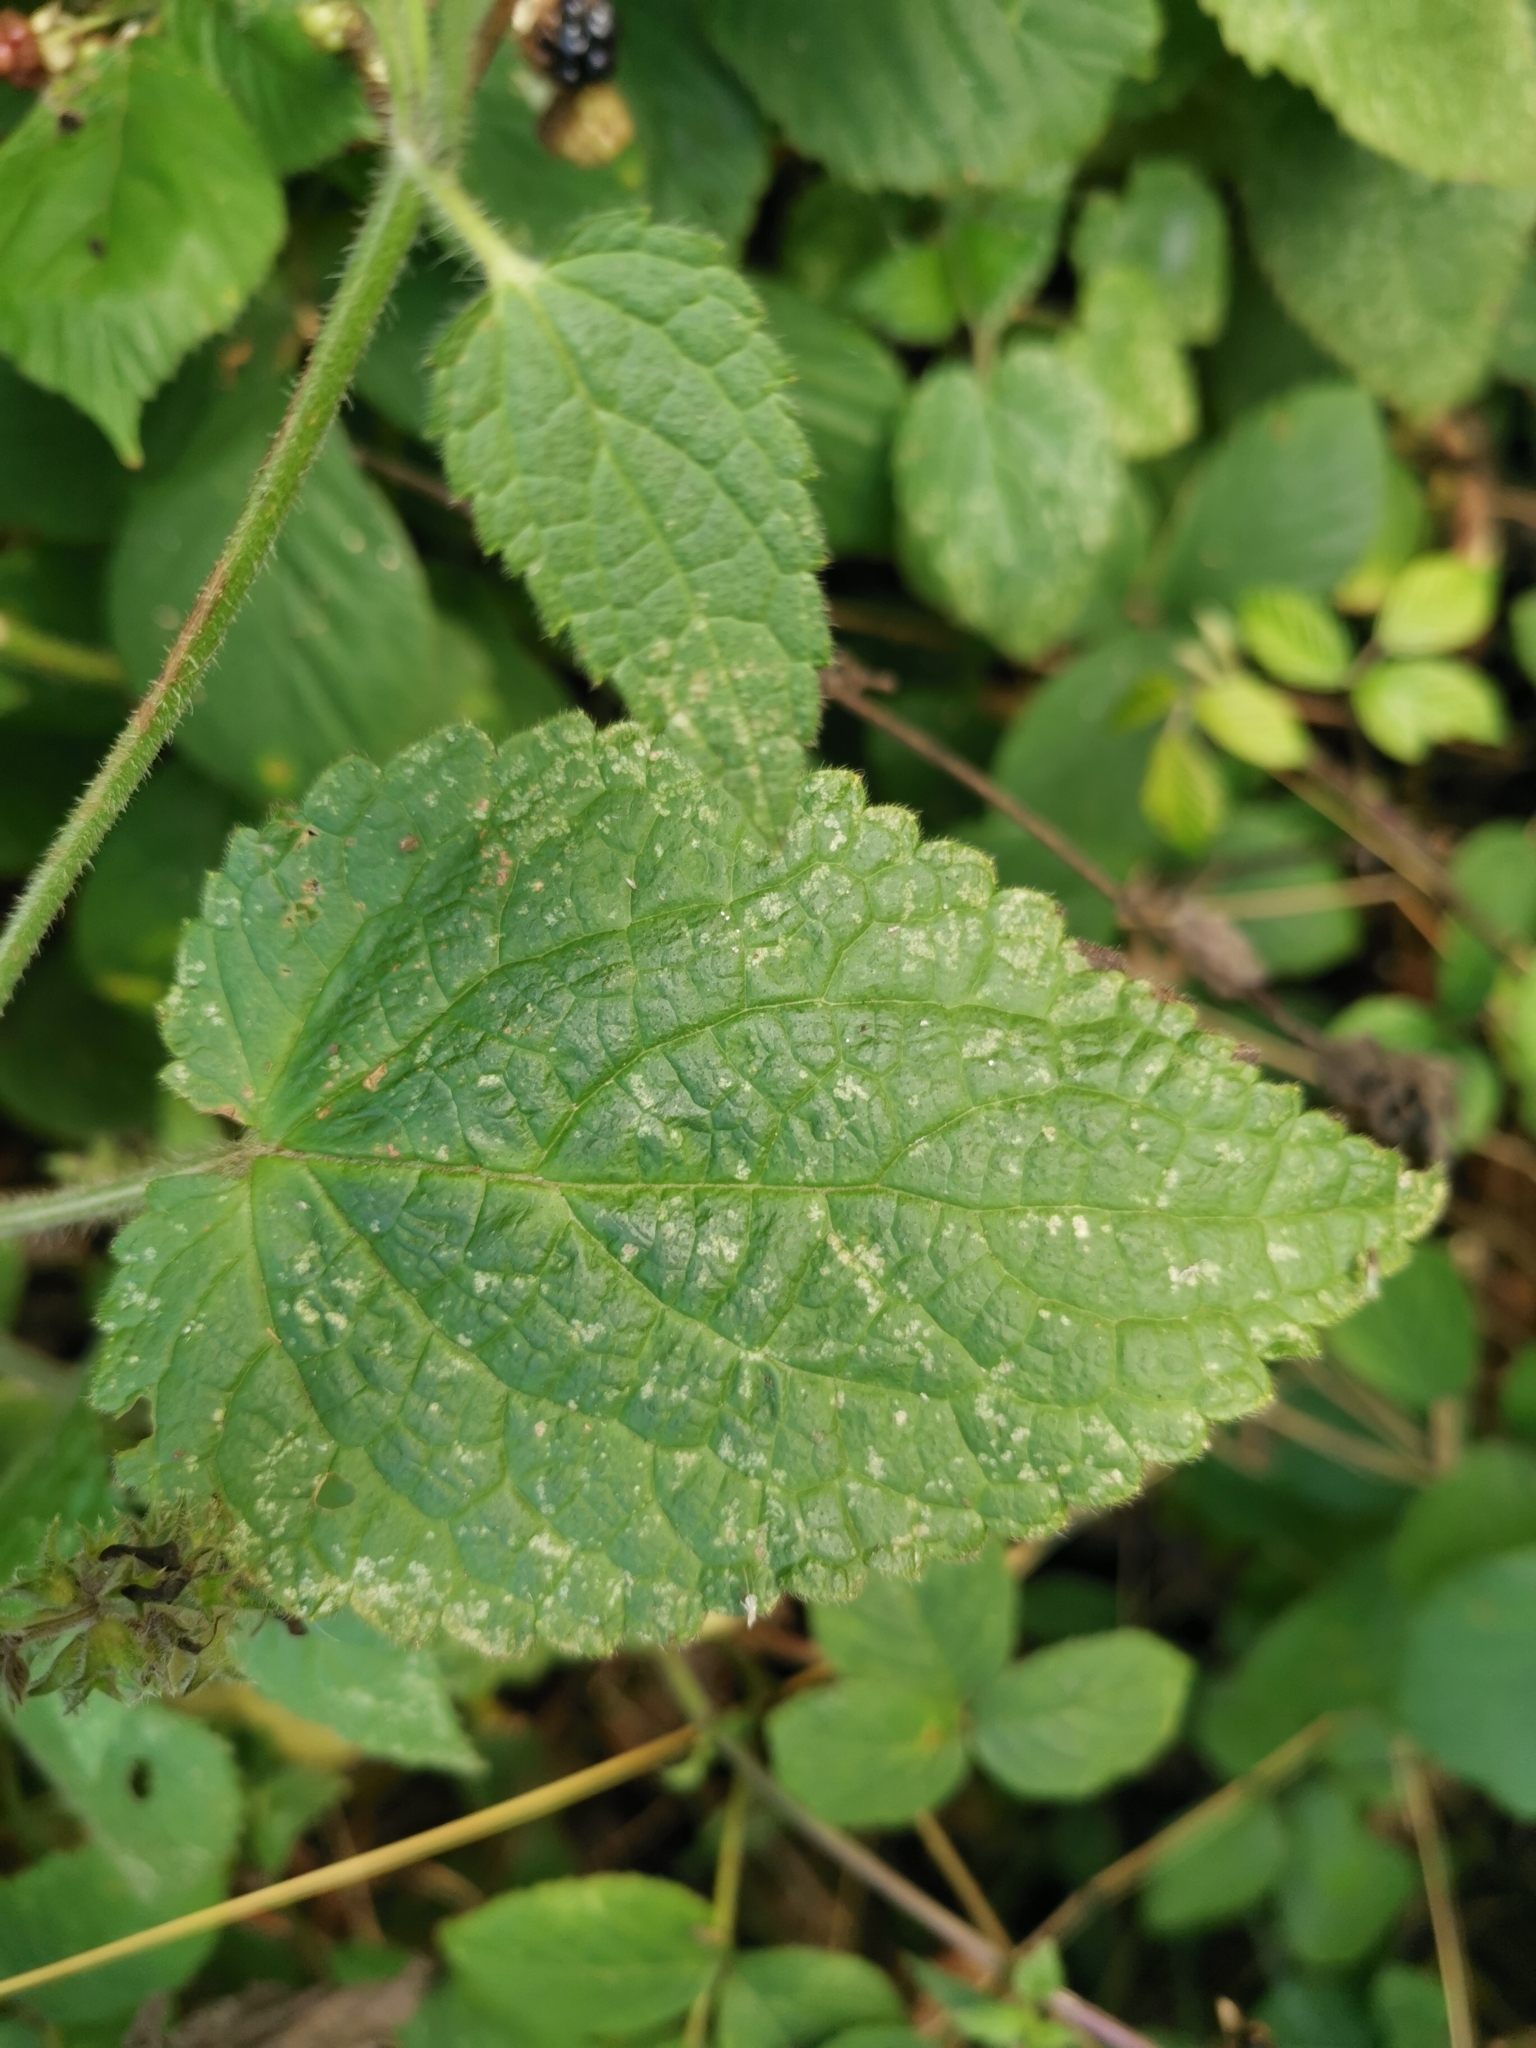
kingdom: Plantae
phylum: Tracheophyta
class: Magnoliopsida
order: Lamiales
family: Lamiaceae
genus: Stachys
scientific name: Stachys sylvatica
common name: Hedge woundwort
